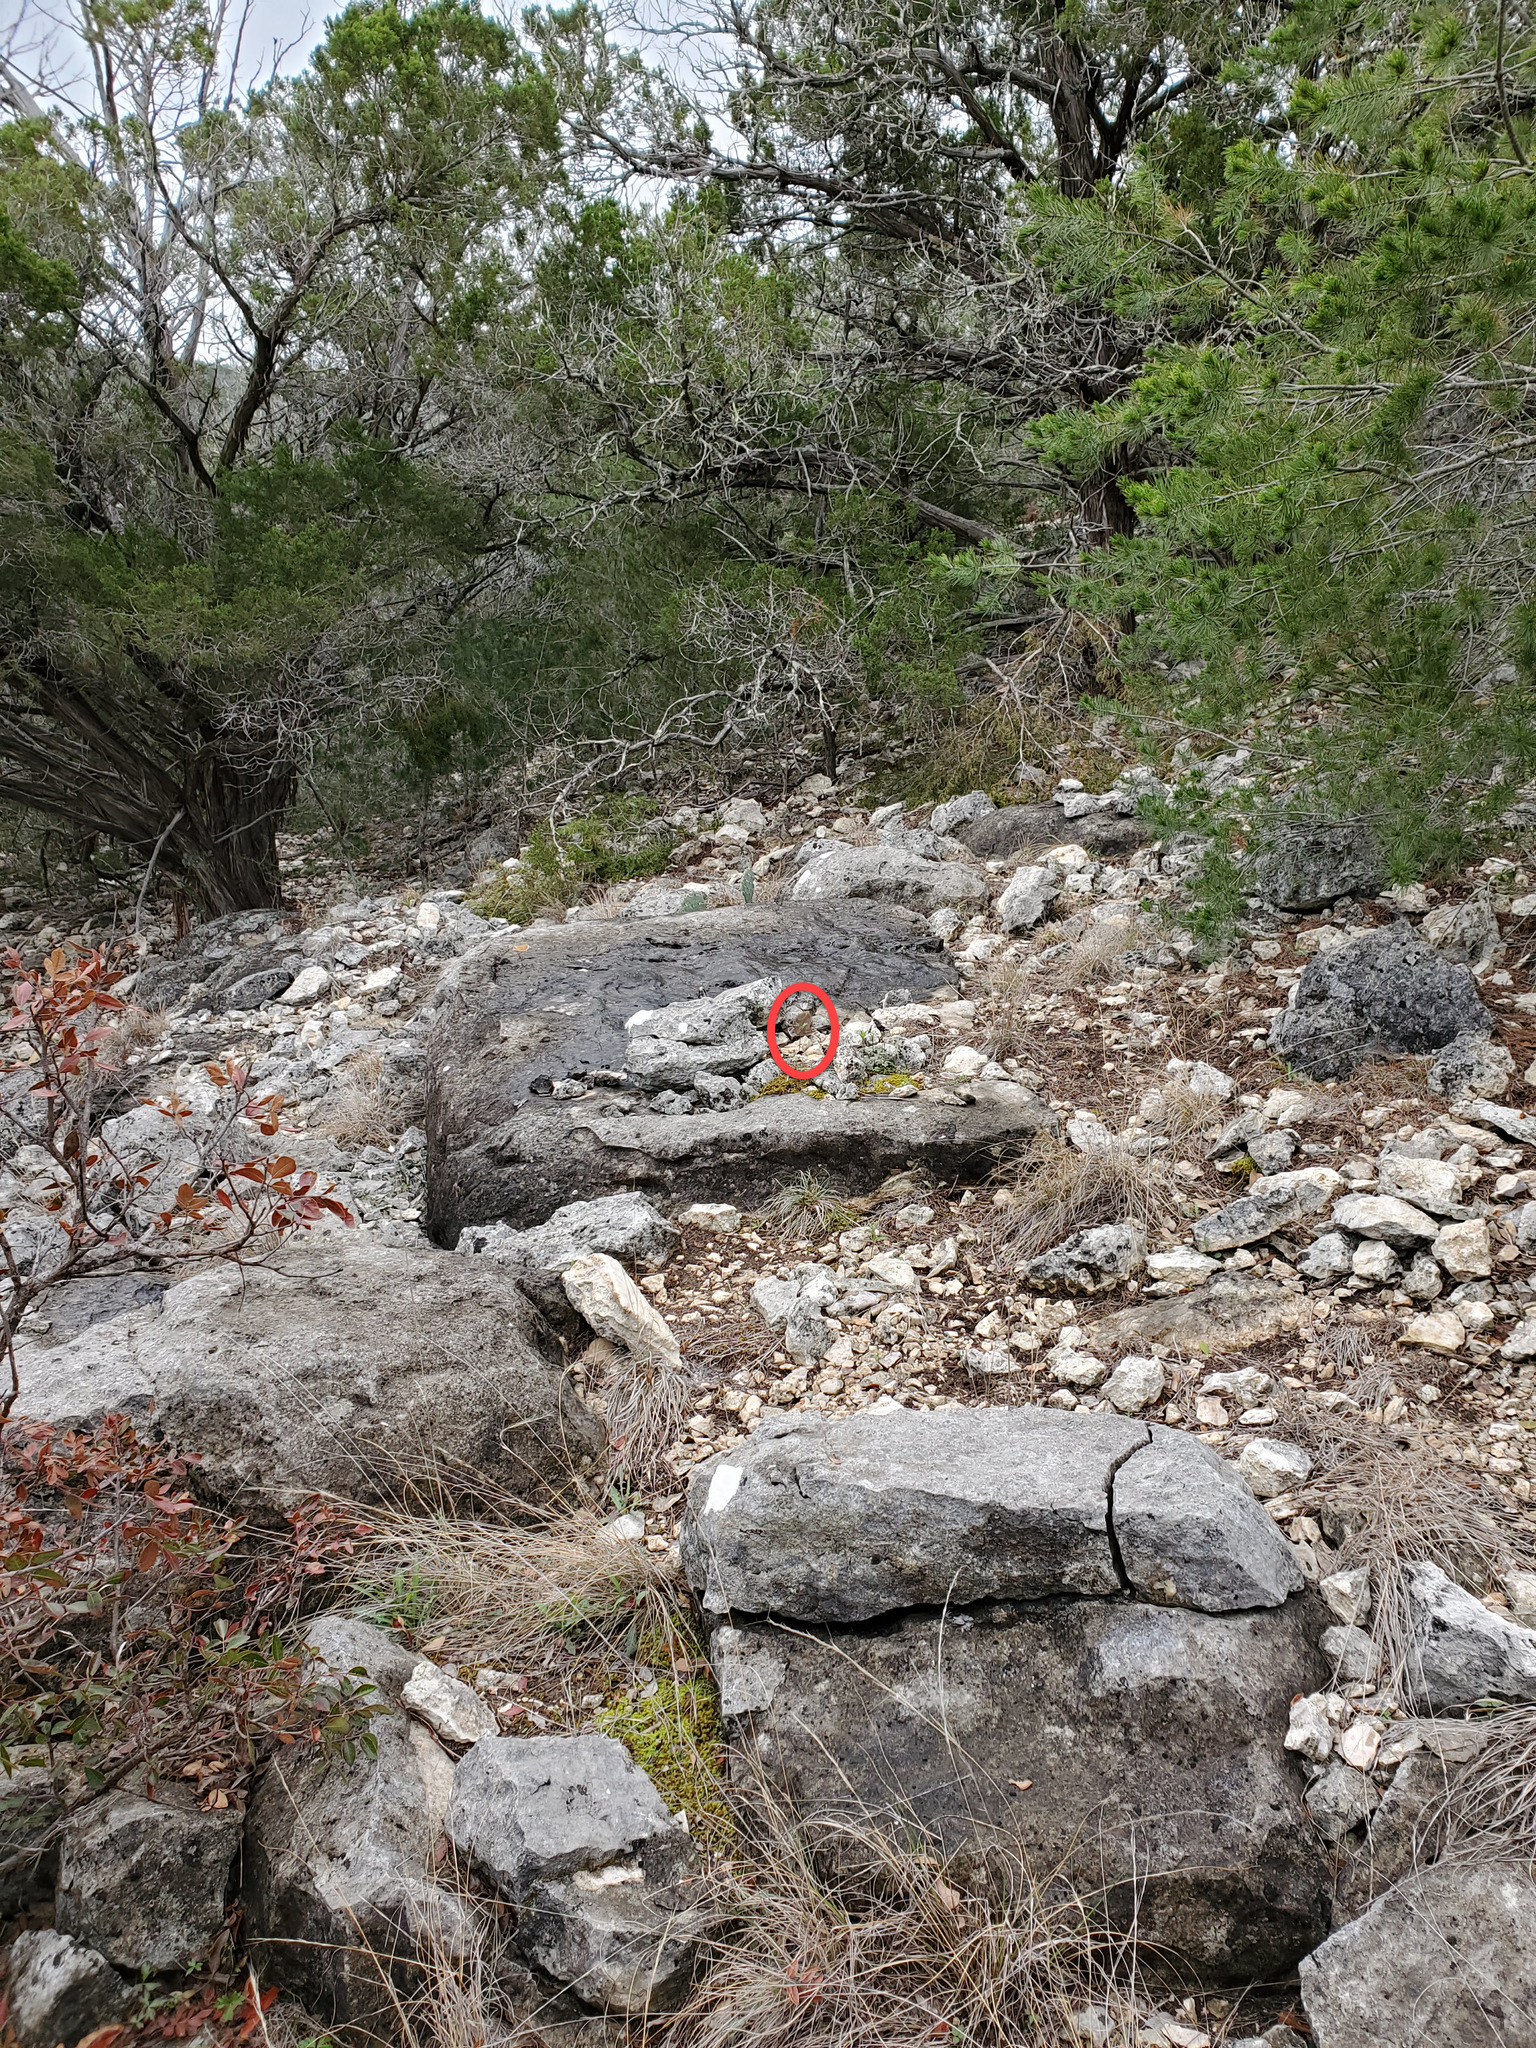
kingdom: Plantae
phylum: Tracheophyta
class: Magnoliopsida
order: Ranunculales
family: Ranunculaceae
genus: Anemone
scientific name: Anemone edwardsiana
